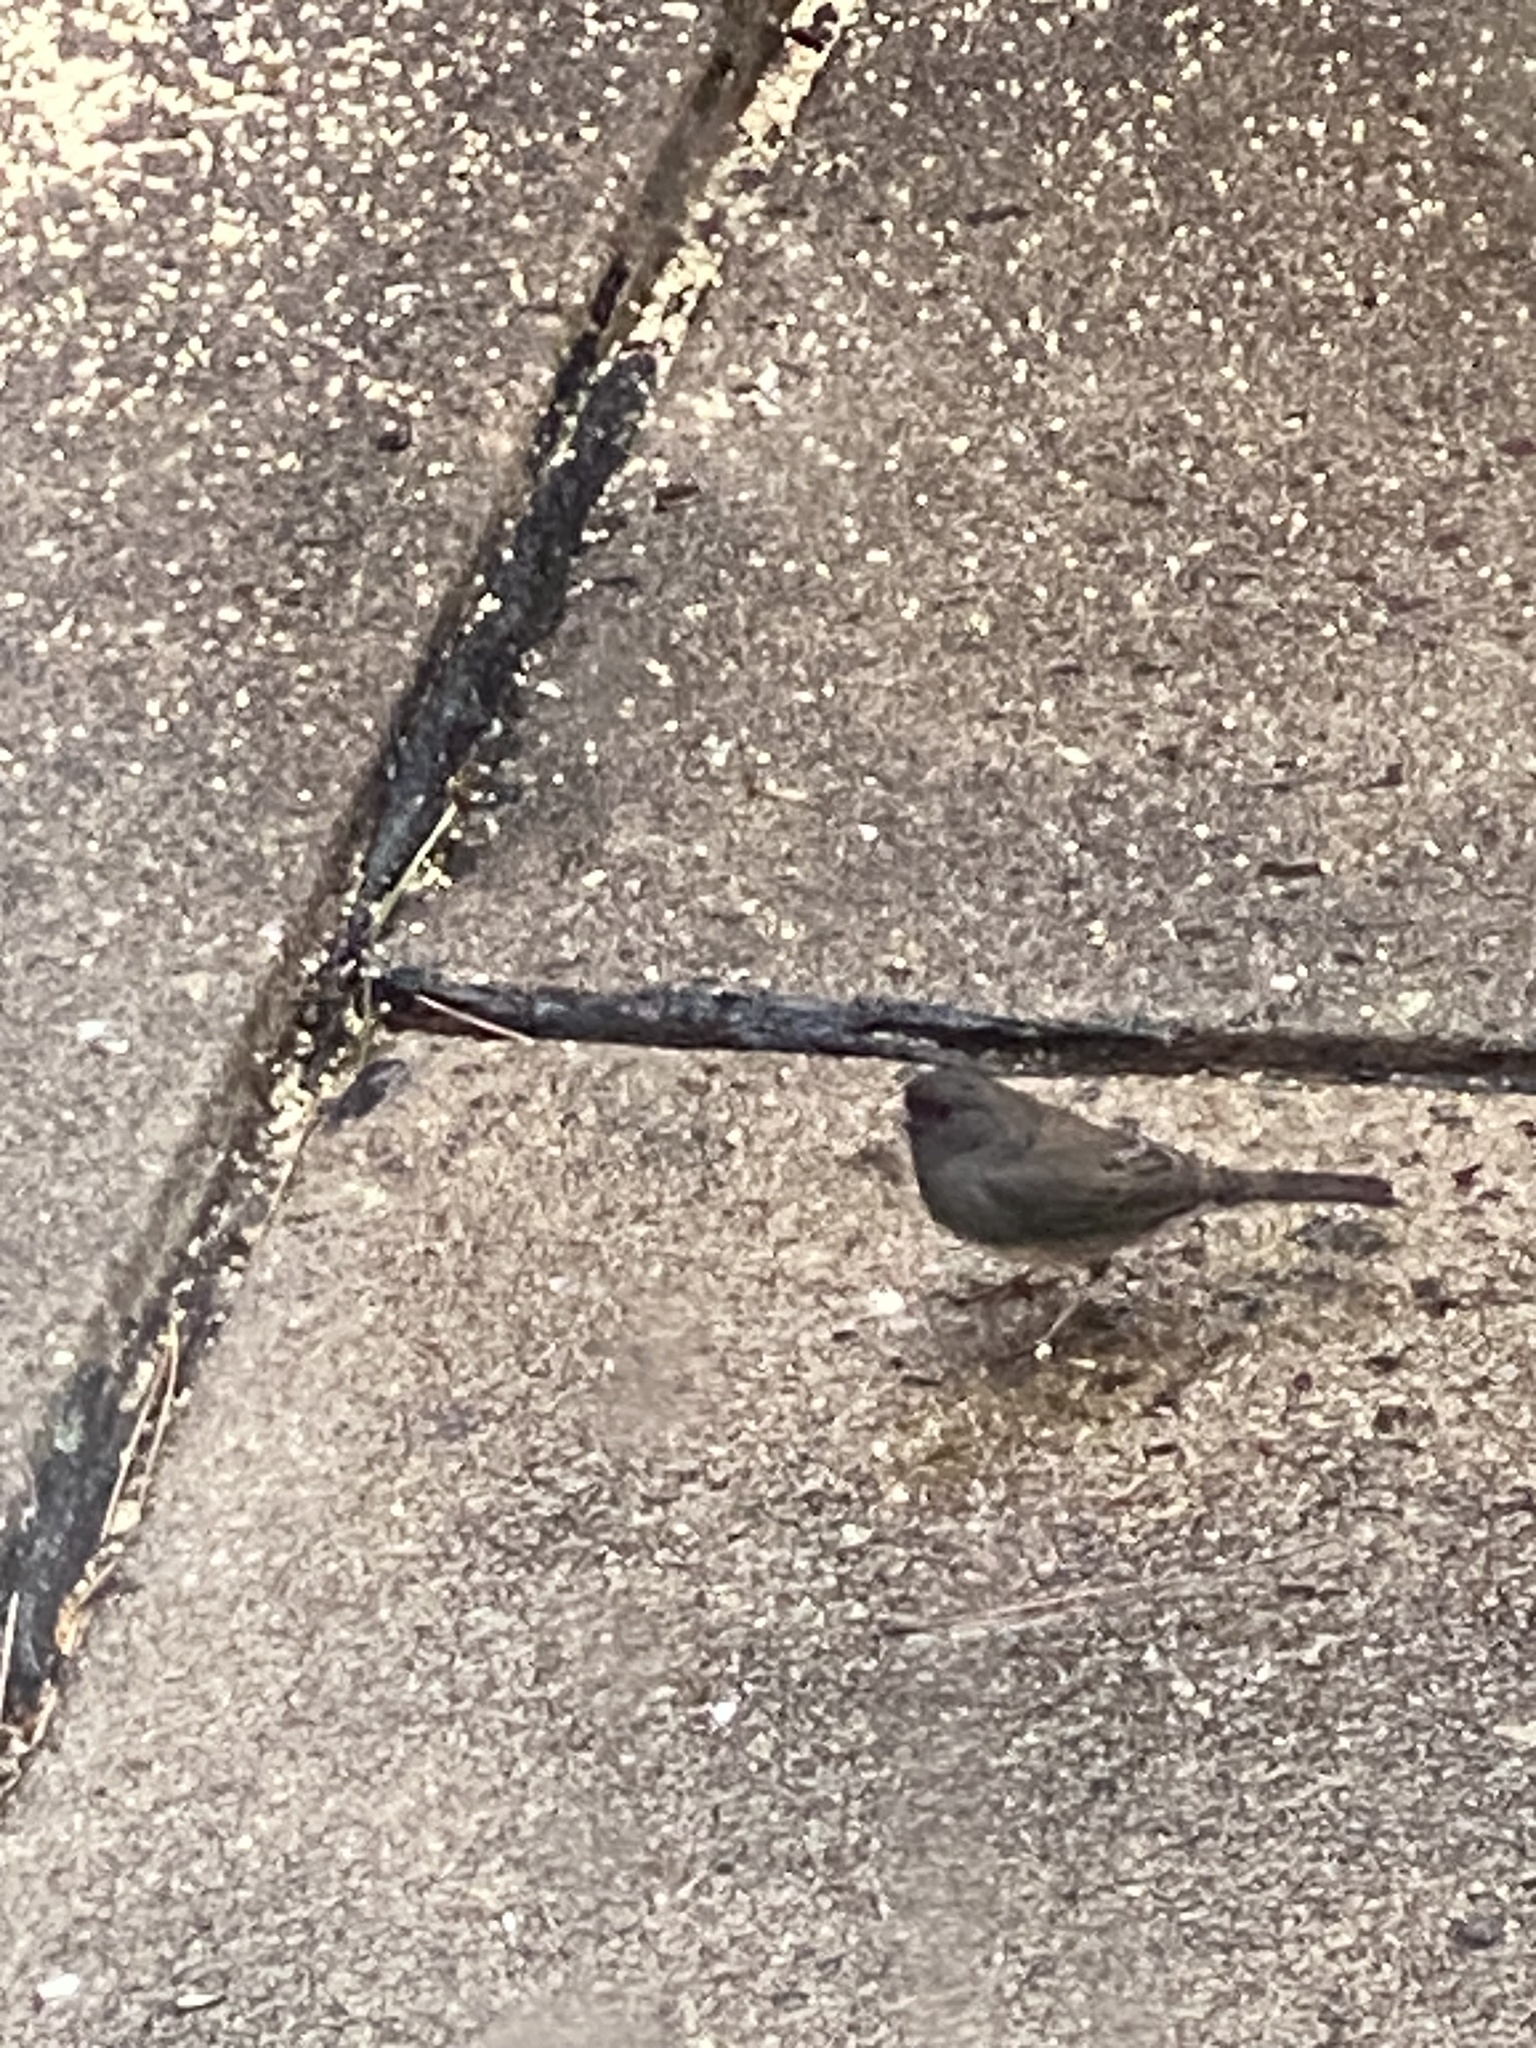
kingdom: Animalia
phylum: Chordata
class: Aves
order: Passeriformes
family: Passerellidae
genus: Junco
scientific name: Junco hyemalis
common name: Dark-eyed junco
